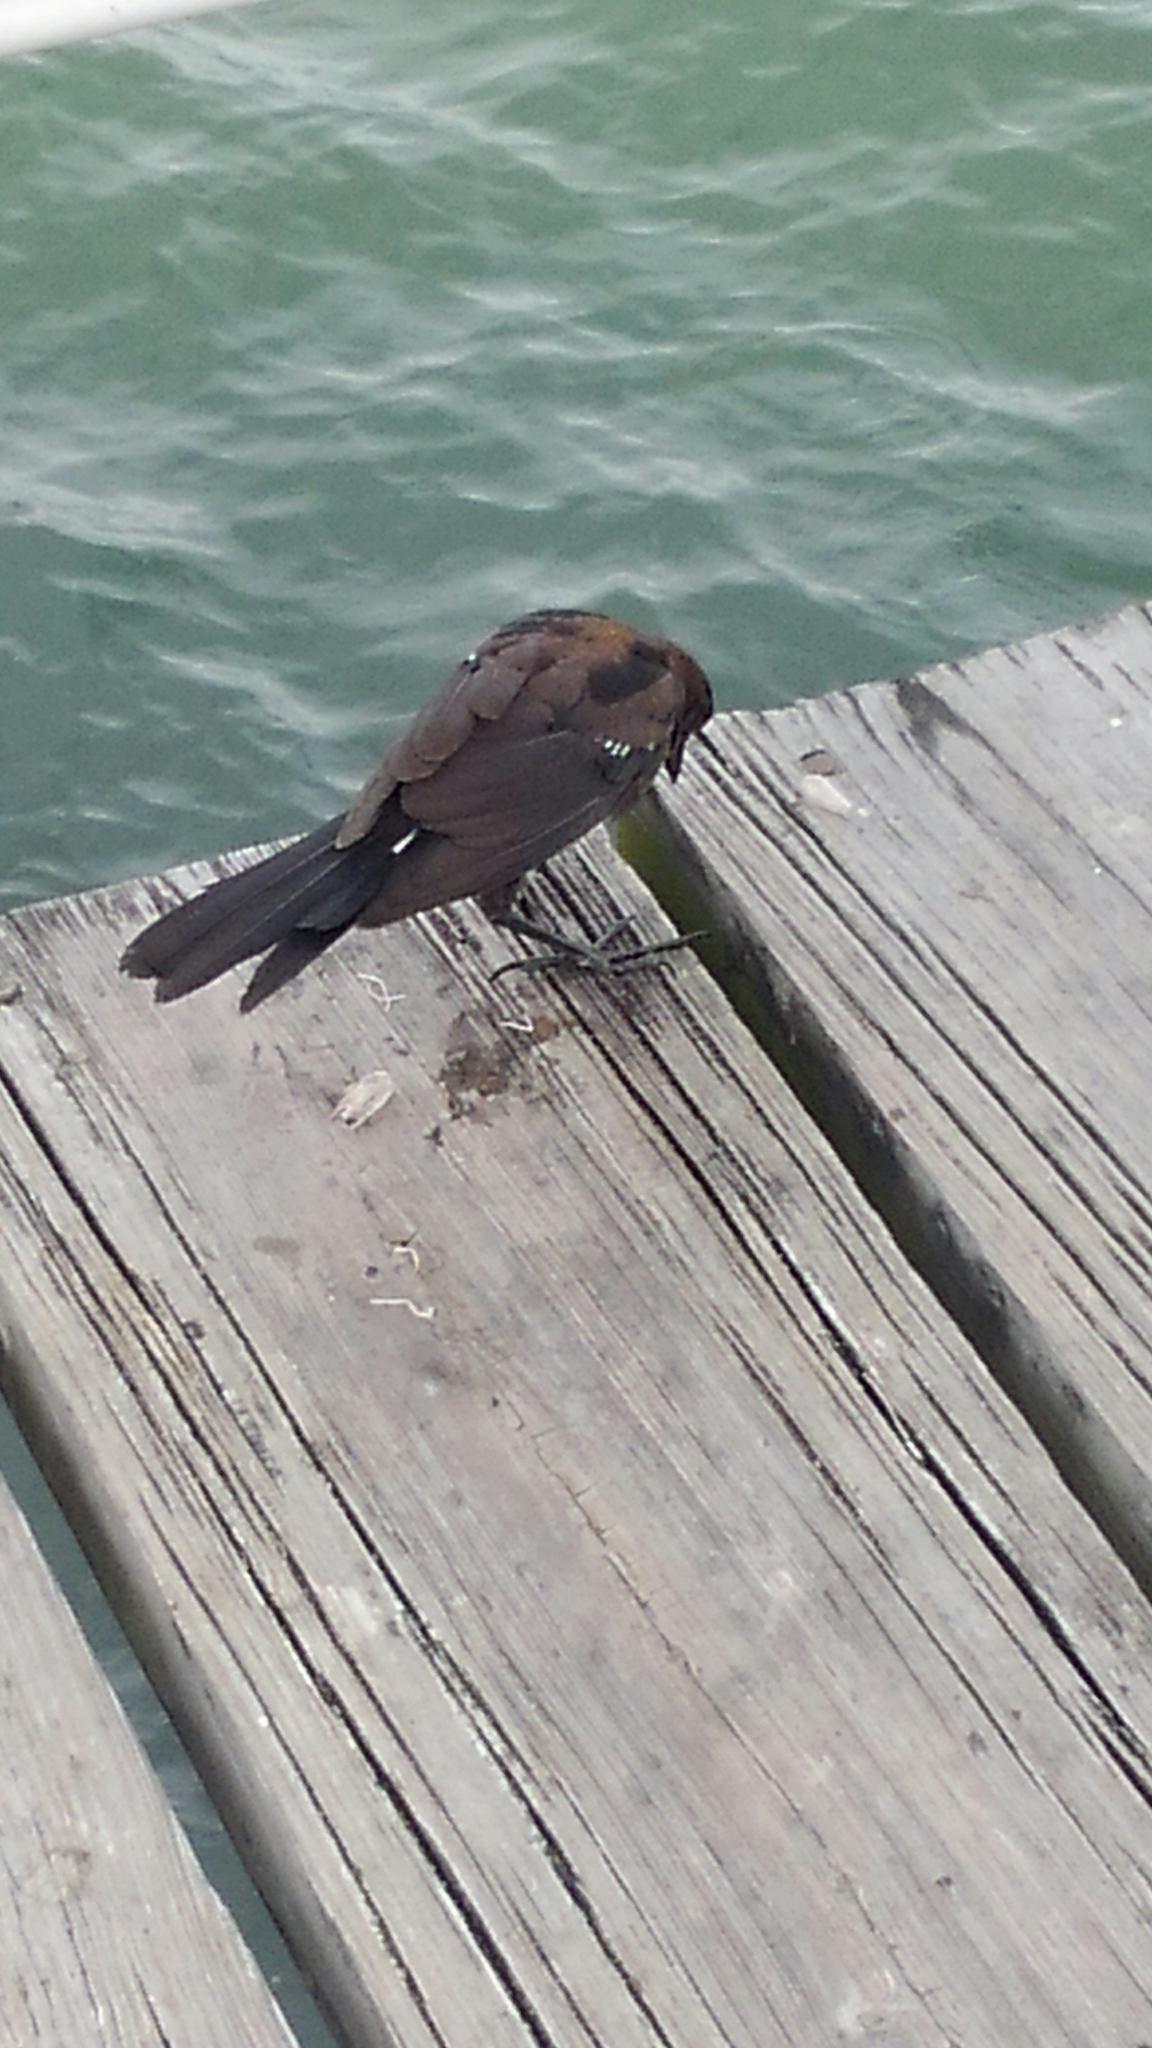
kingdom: Animalia
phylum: Chordata
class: Aves
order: Passeriformes
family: Icteridae
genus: Quiscalus
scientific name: Quiscalus major
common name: Boat-tailed grackle
